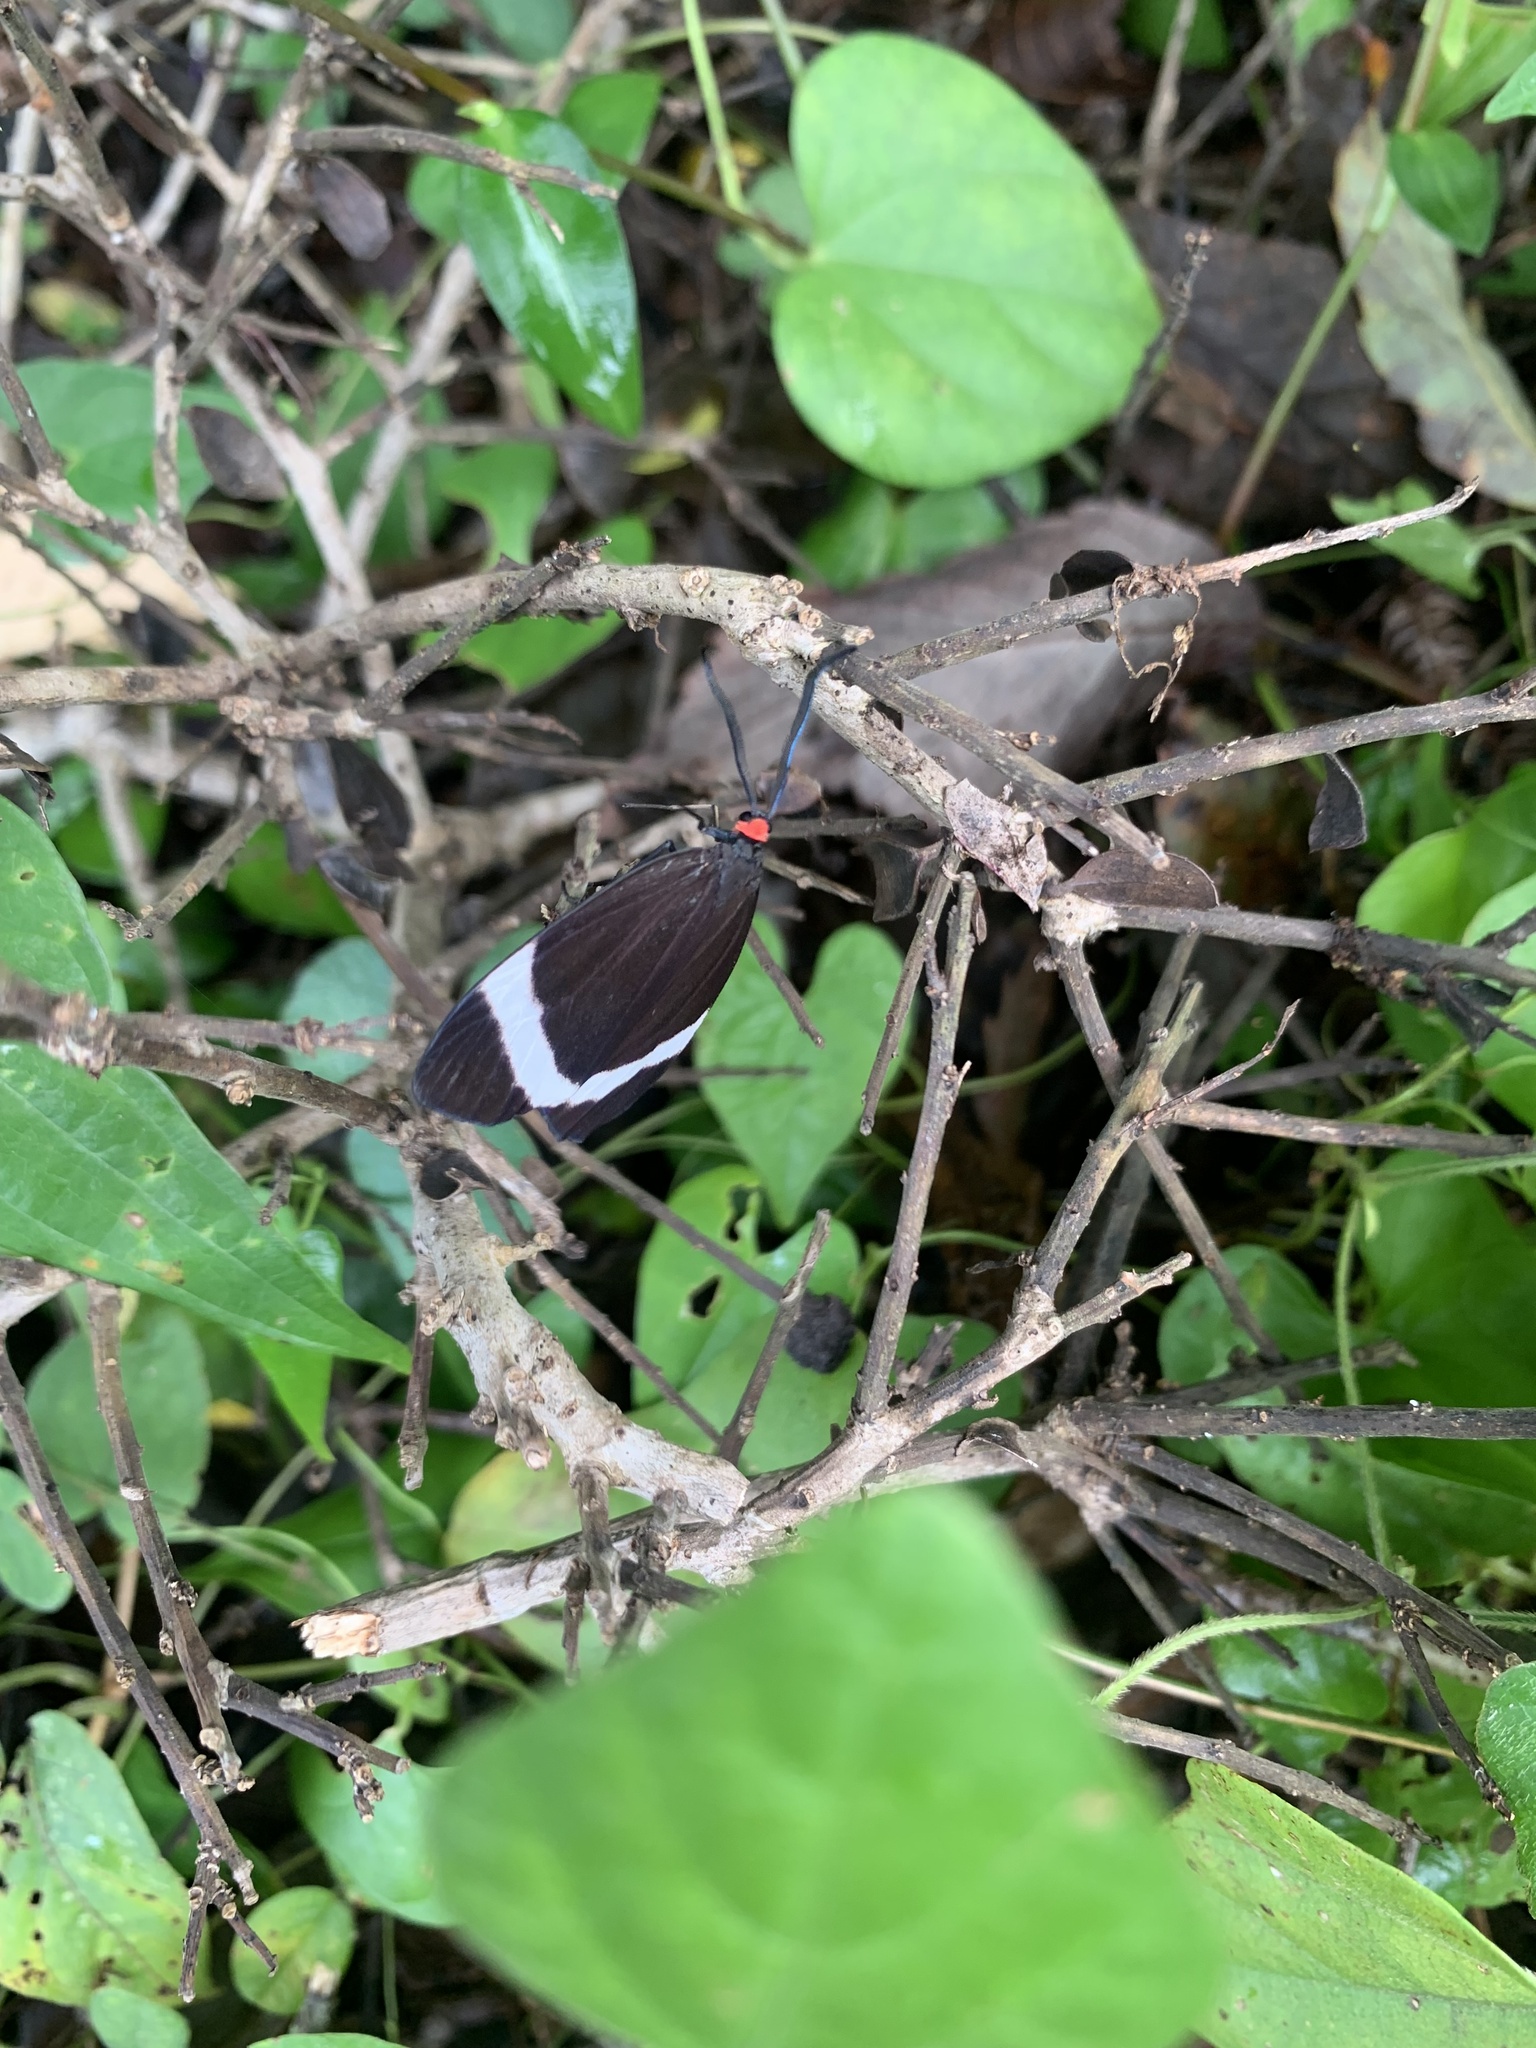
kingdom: Animalia
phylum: Arthropoda
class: Insecta
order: Lepidoptera
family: Zygaenidae
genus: Pidorus
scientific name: Pidorus glaucopis
